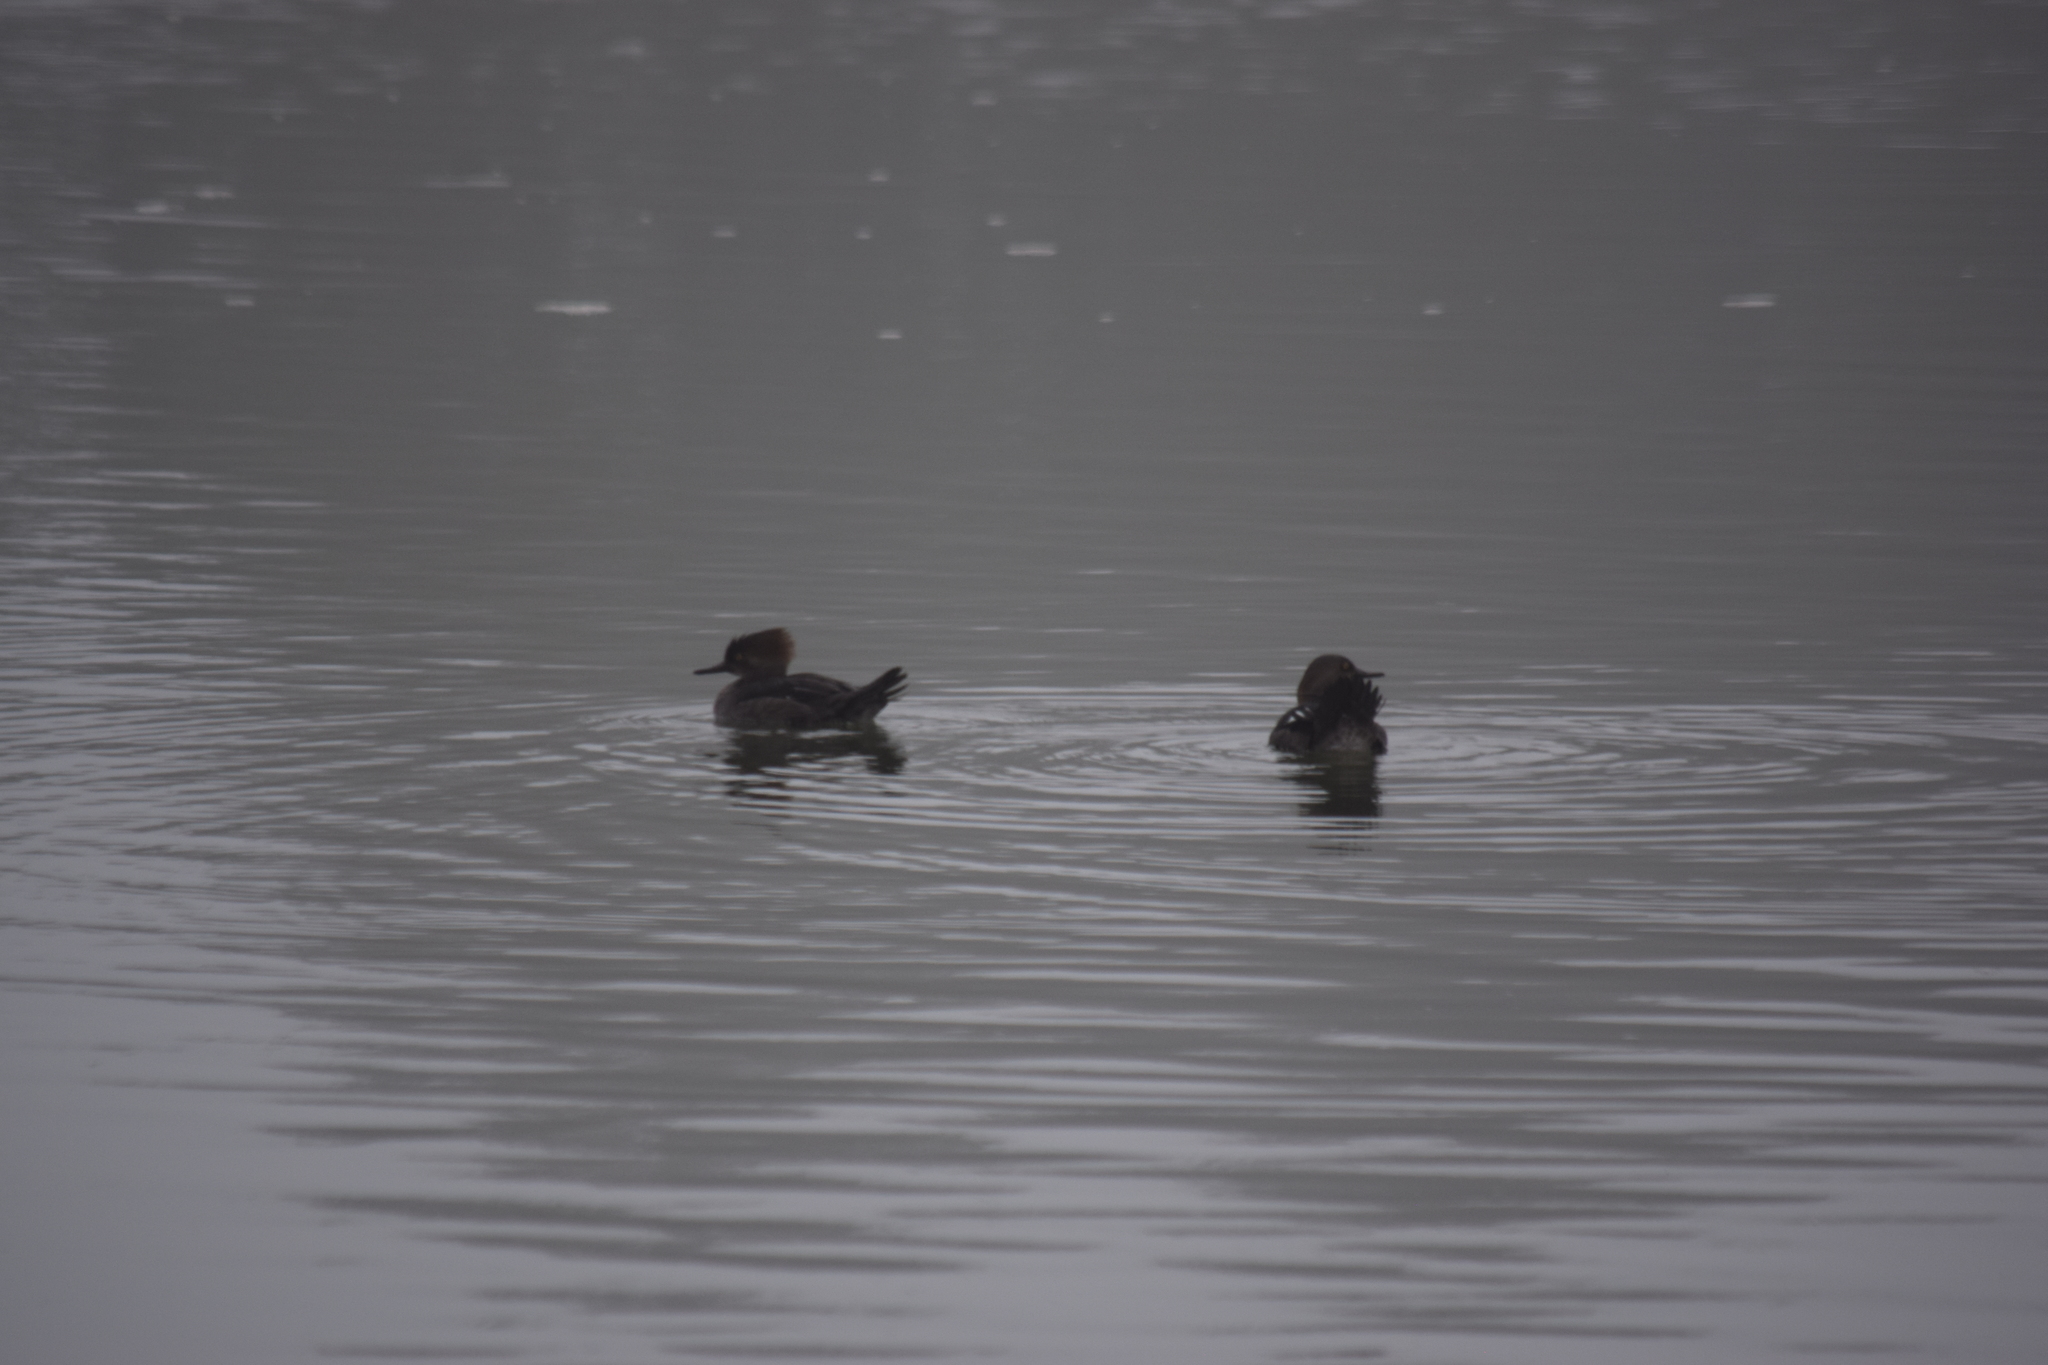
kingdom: Animalia
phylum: Chordata
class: Aves
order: Anseriformes
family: Anatidae
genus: Lophodytes
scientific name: Lophodytes cucullatus
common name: Hooded merganser
